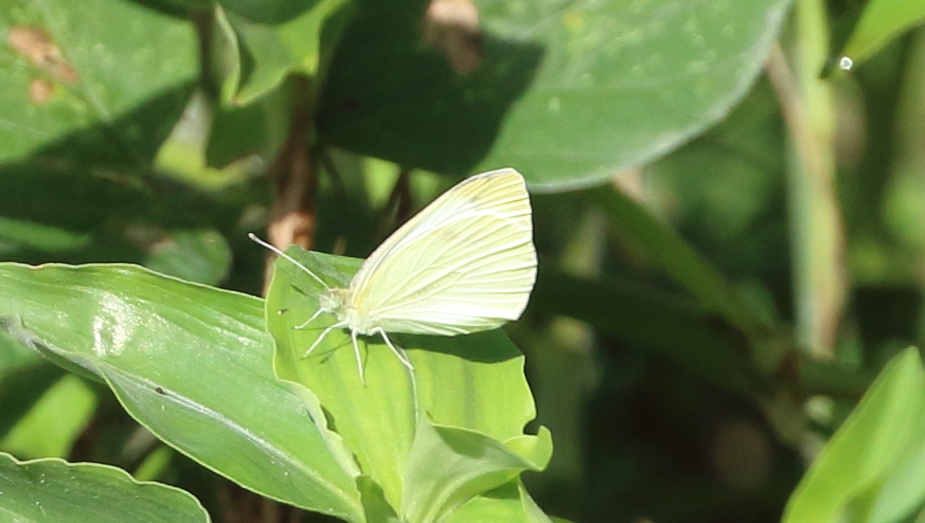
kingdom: Animalia
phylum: Arthropoda
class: Insecta
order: Lepidoptera
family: Pieridae
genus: Pieris
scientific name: Pieris rapae
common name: Small white
